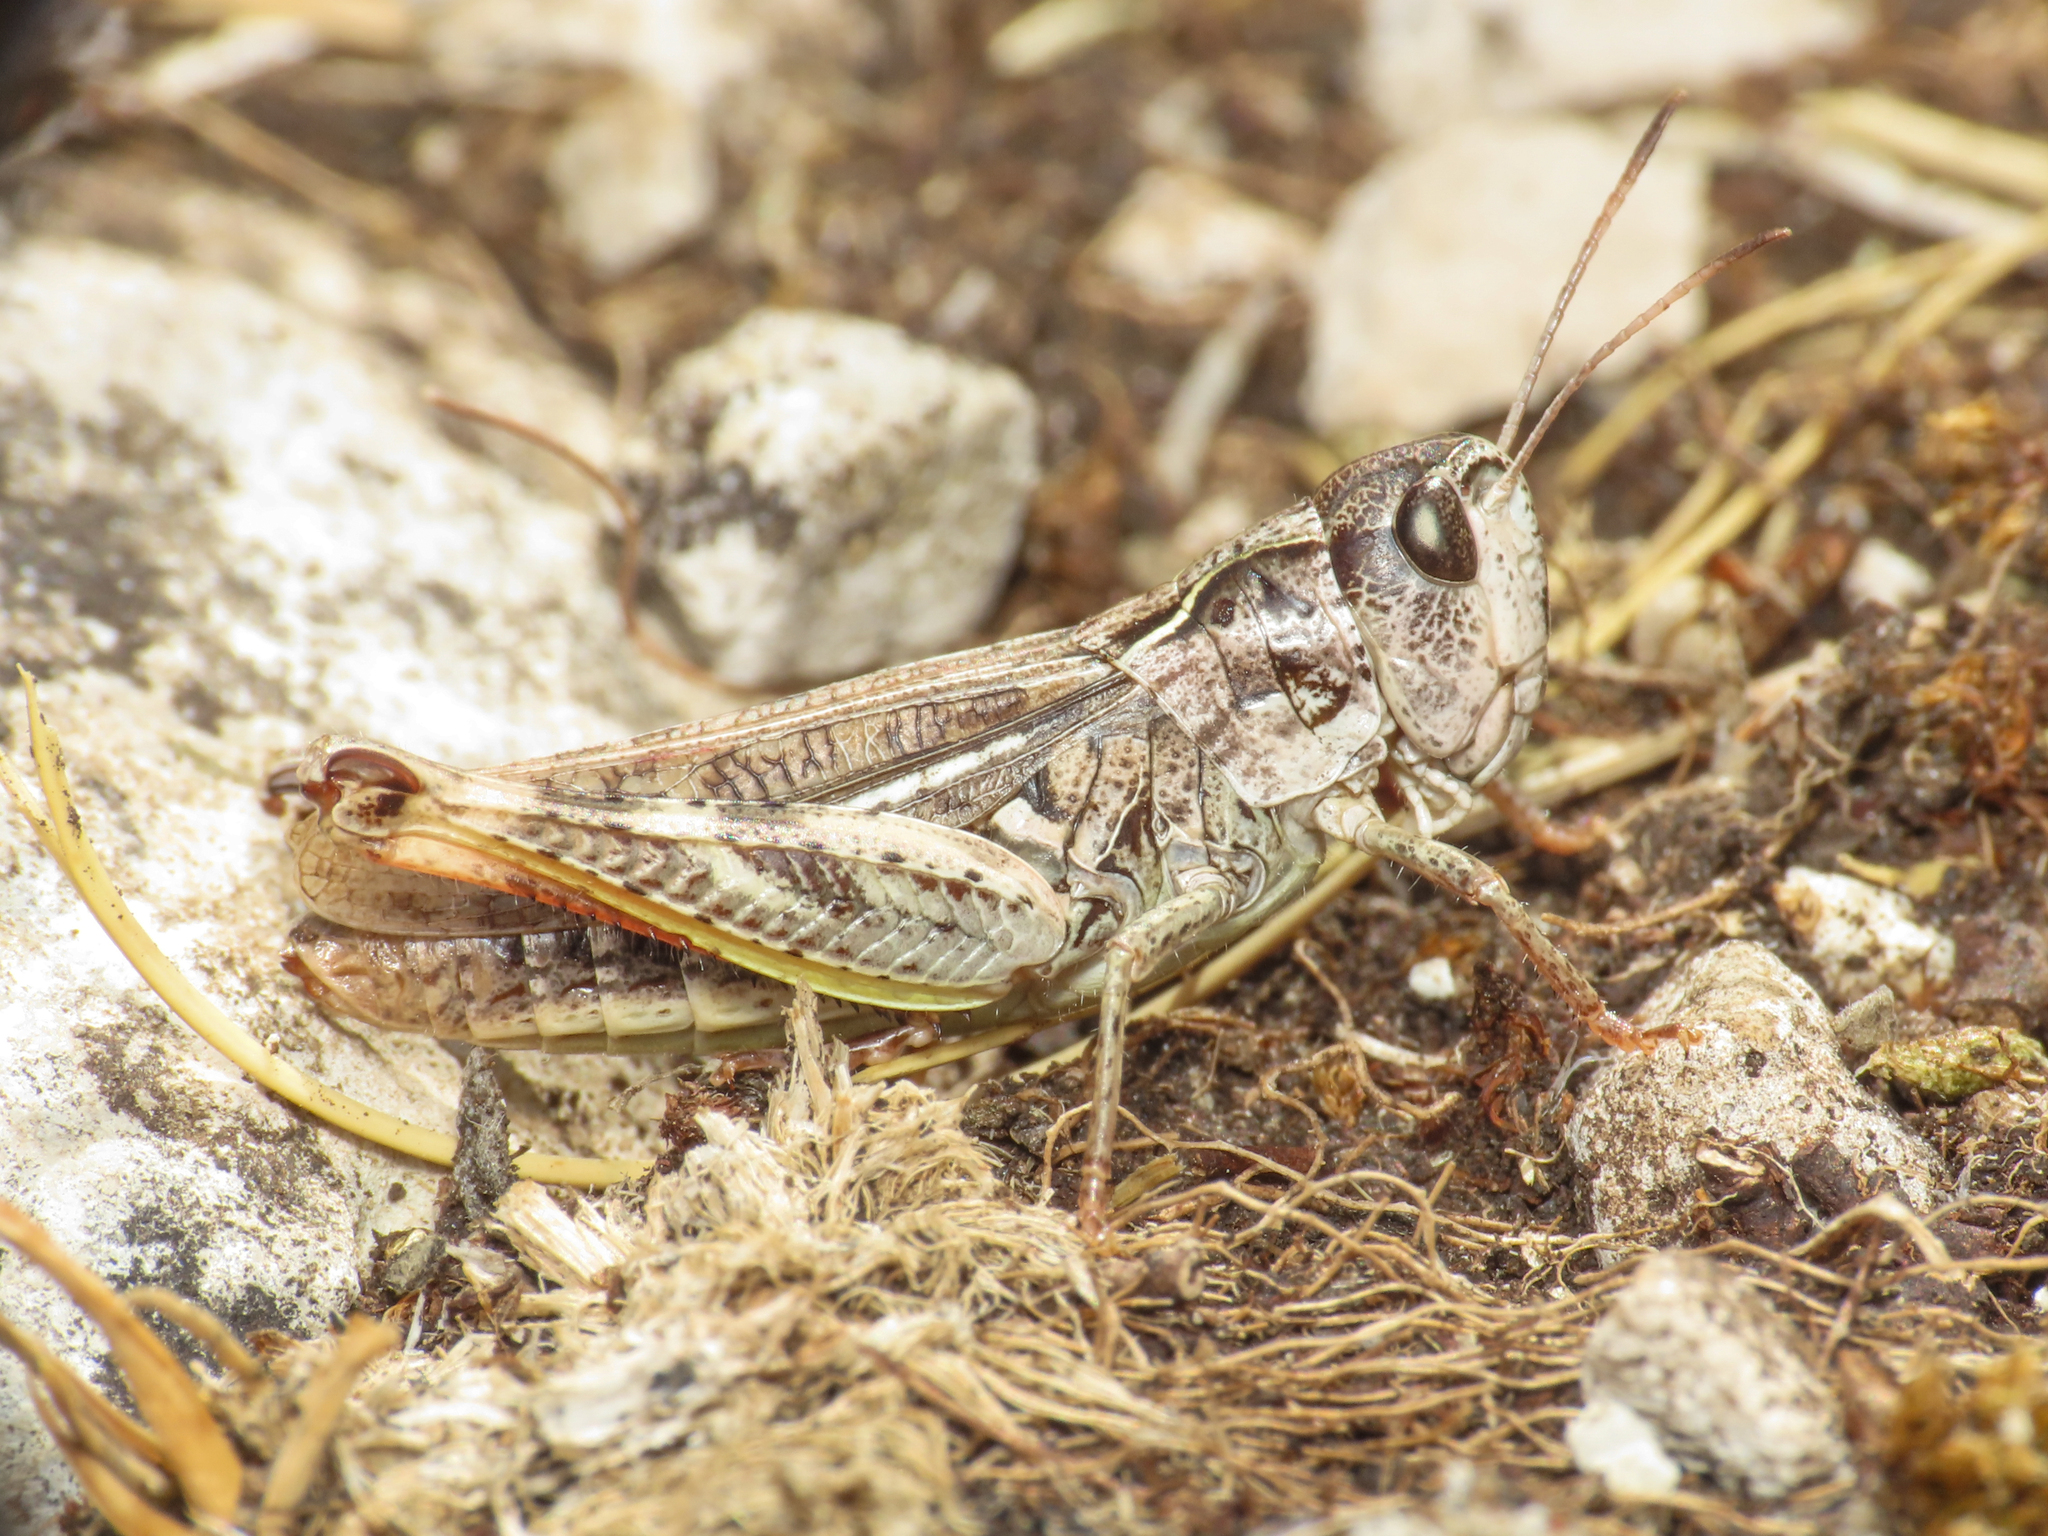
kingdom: Animalia
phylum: Arthropoda
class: Insecta
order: Orthoptera
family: Acrididae
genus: Gomphocerus
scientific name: Gomphocerus sibiricus
